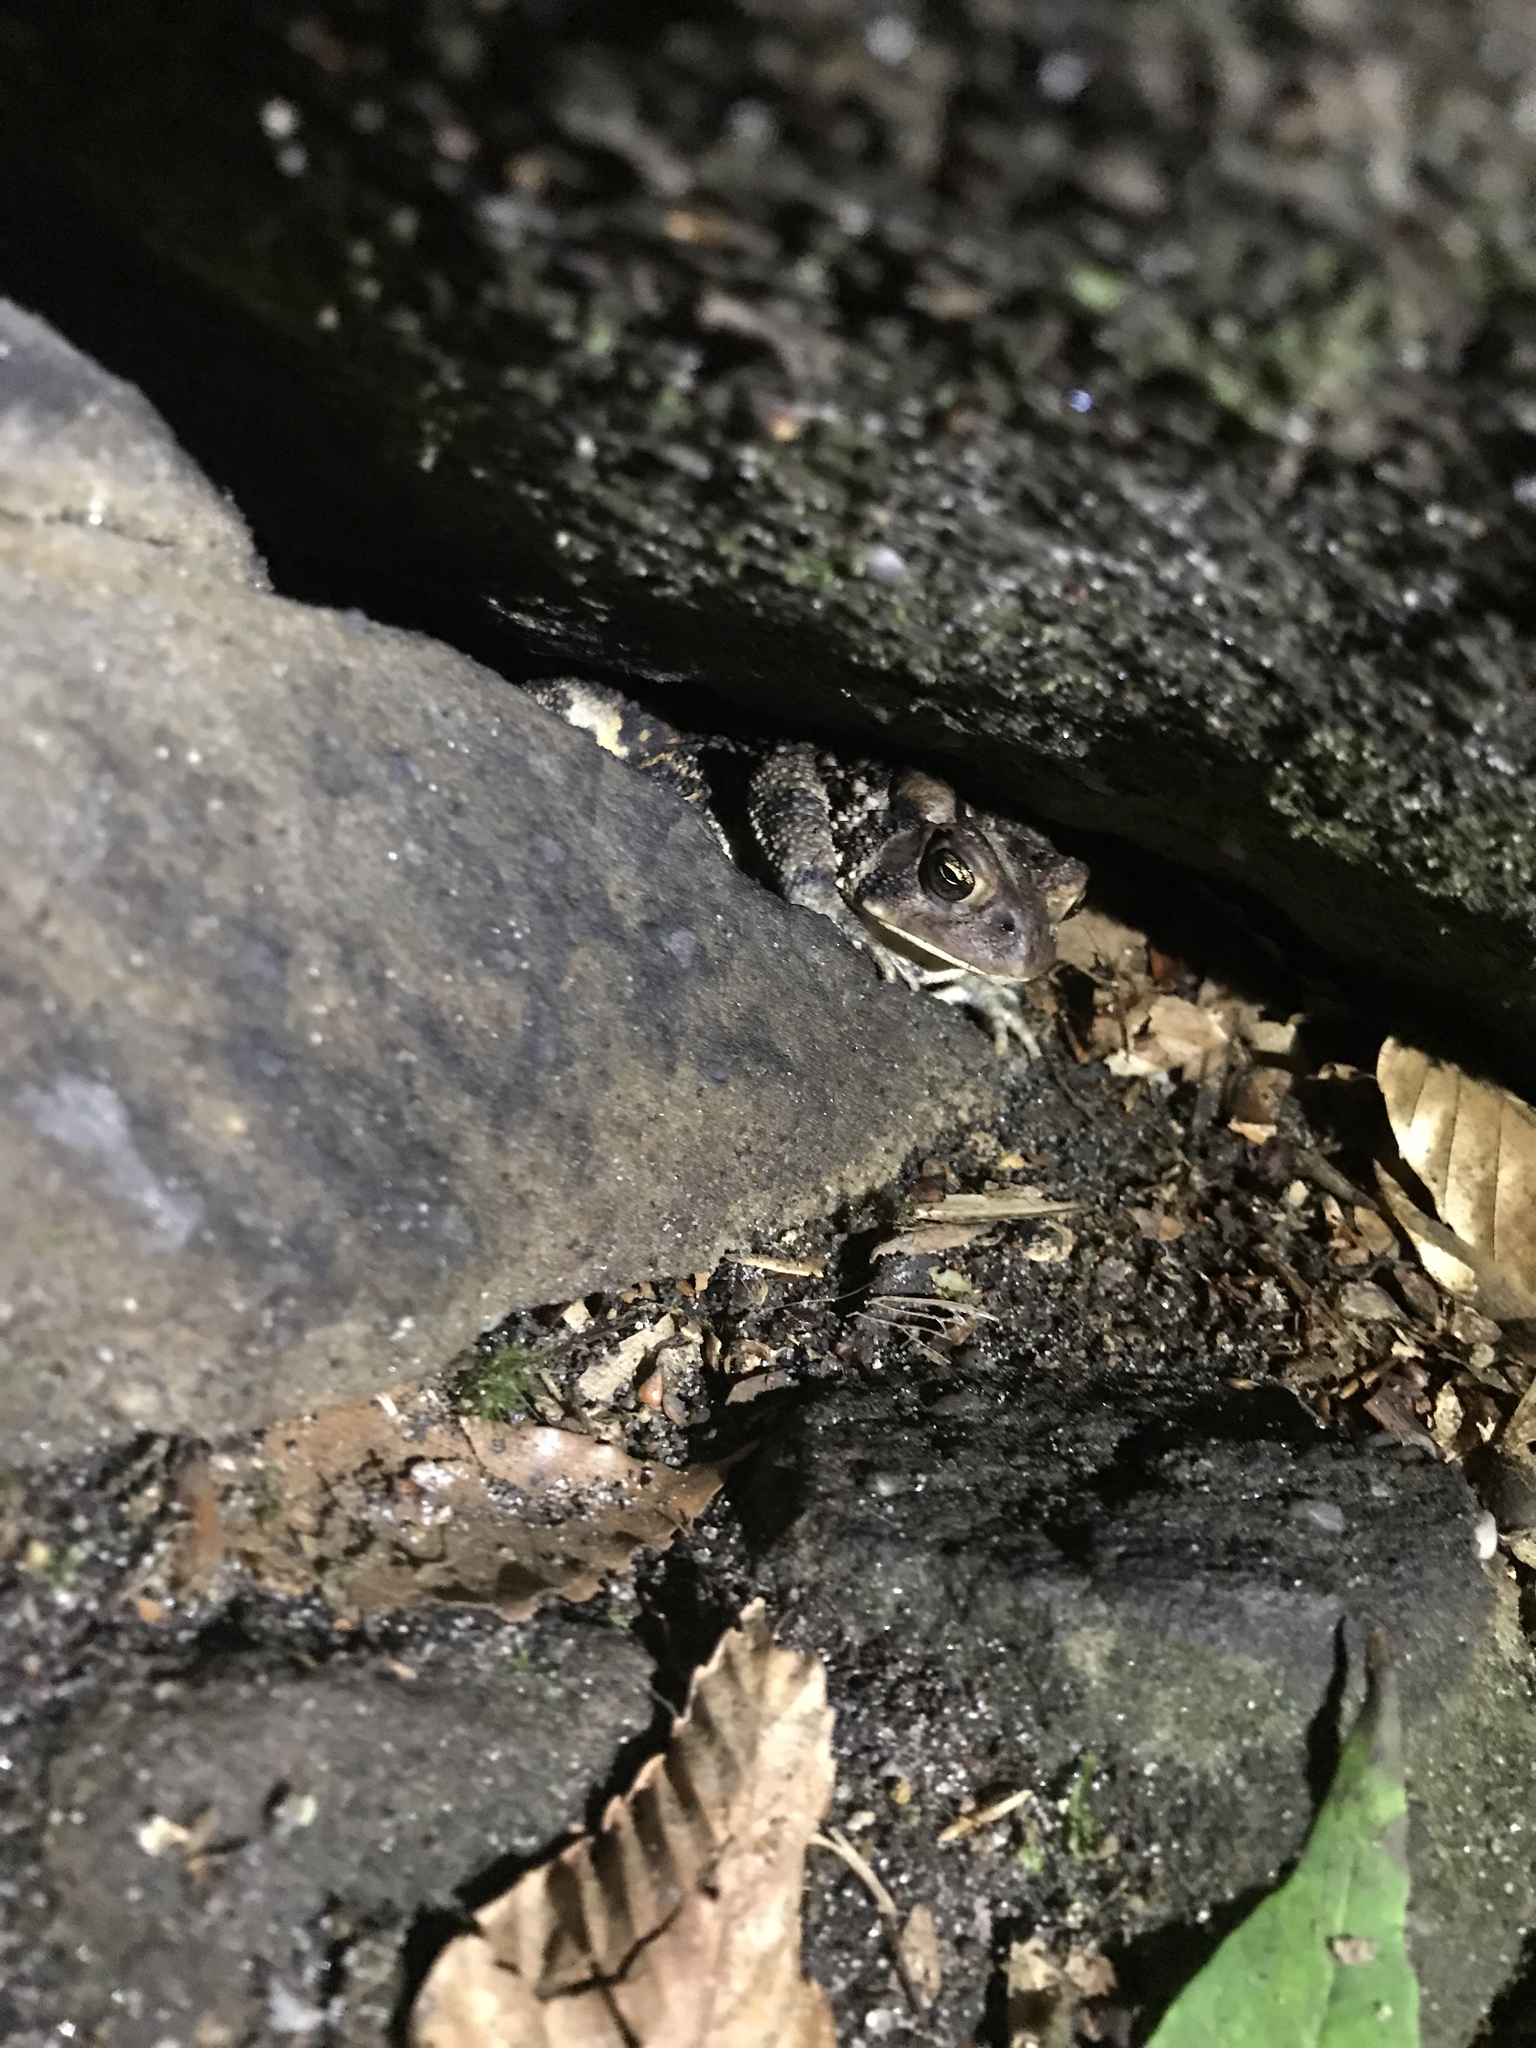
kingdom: Animalia
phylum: Chordata
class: Amphibia
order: Anura
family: Bufonidae
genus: Anaxyrus
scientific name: Anaxyrus americanus
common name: American toad
